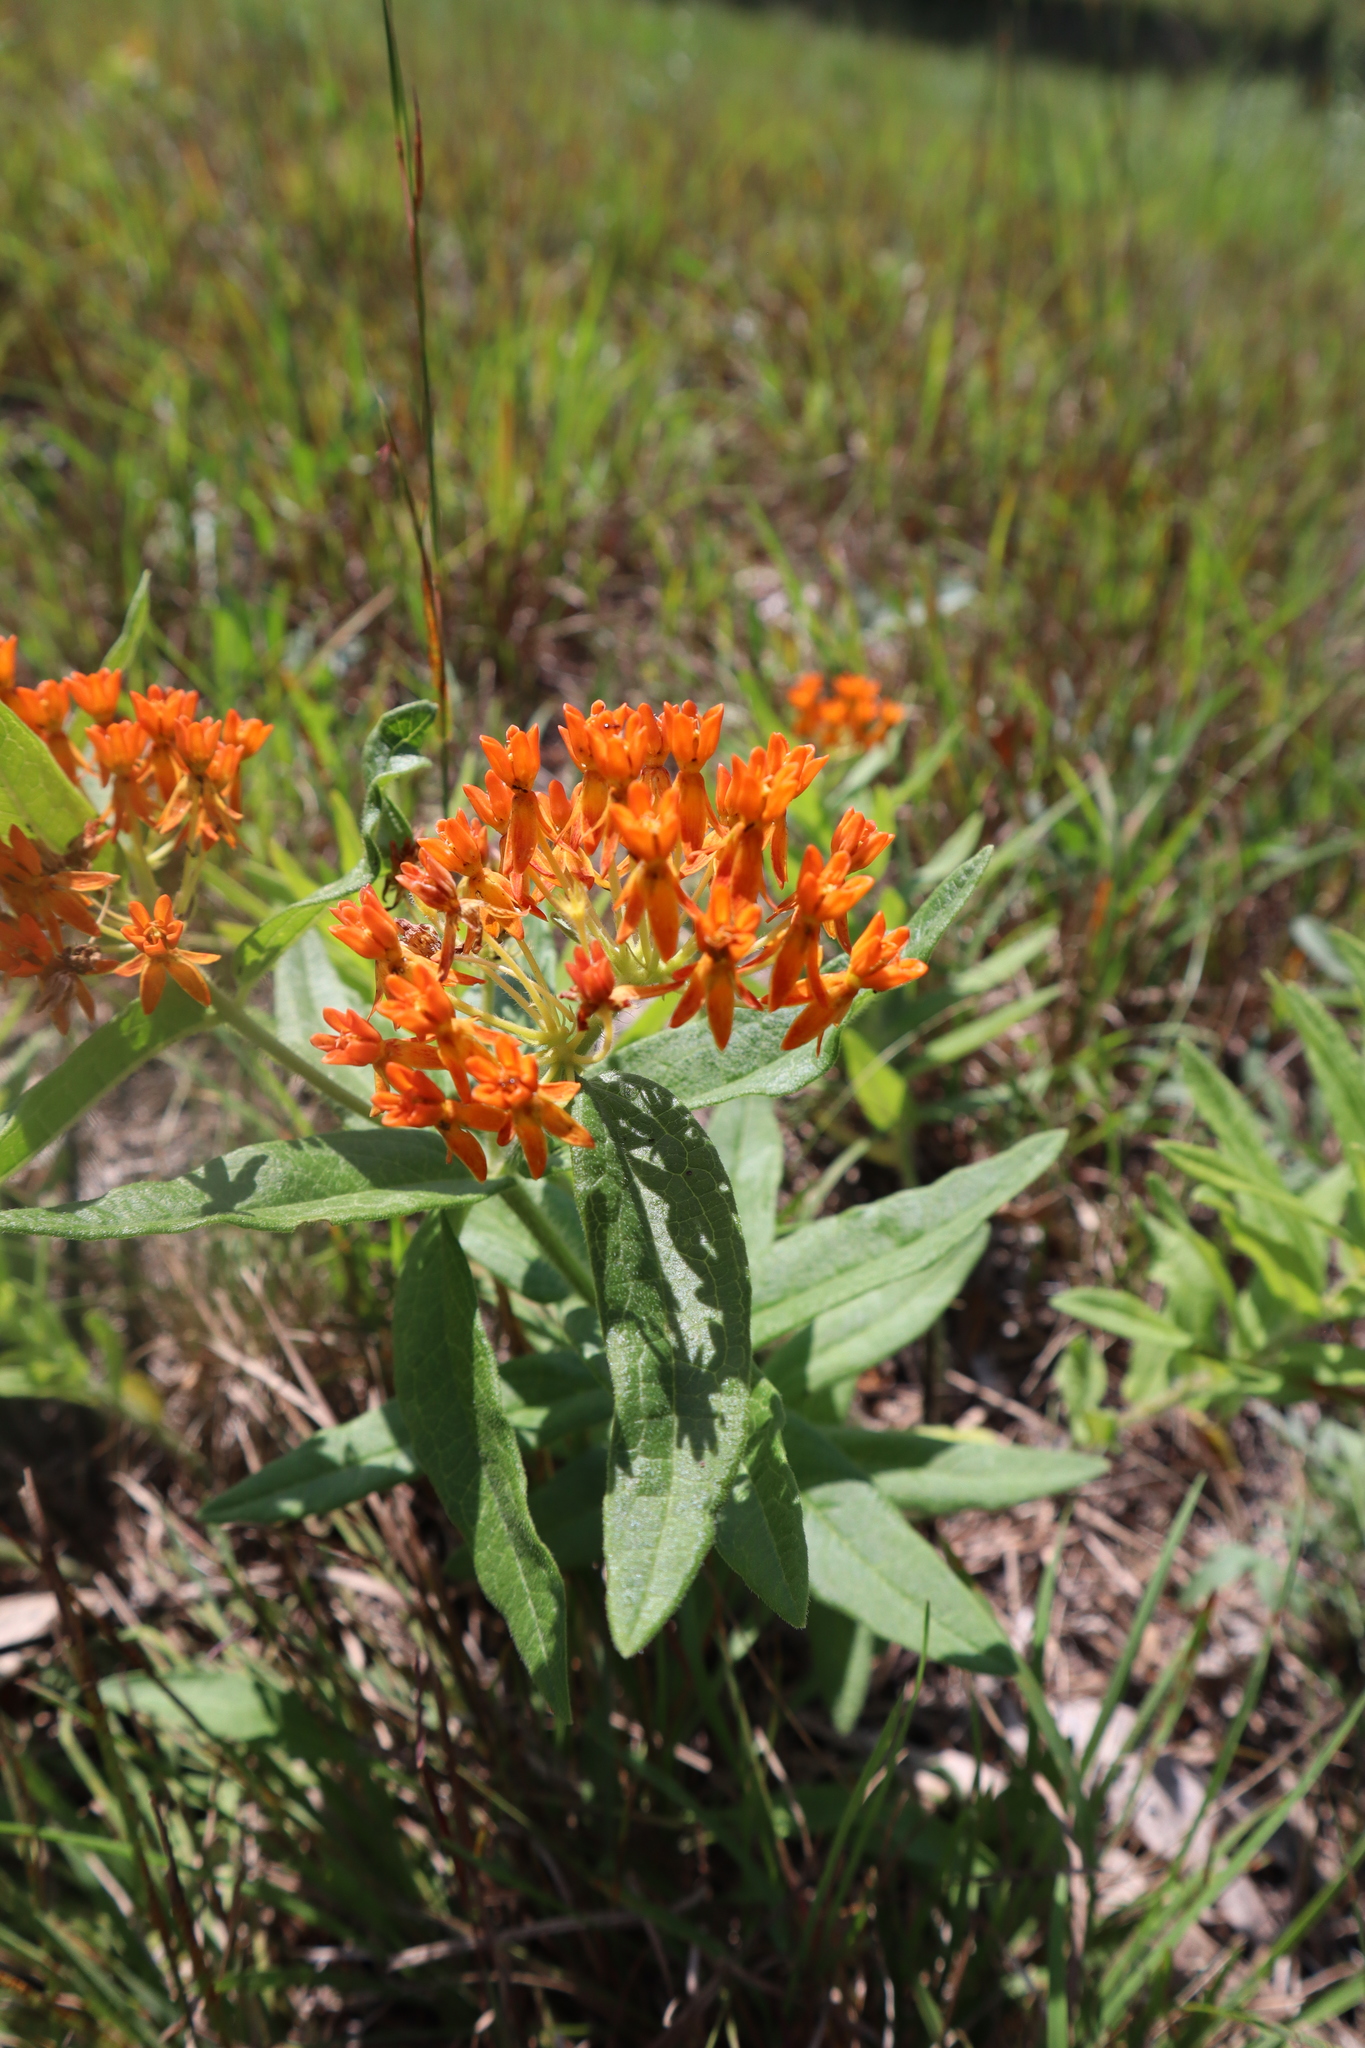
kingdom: Plantae
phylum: Tracheophyta
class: Magnoliopsida
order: Gentianales
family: Apocynaceae
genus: Asclepias
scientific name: Asclepias tuberosa
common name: Butterfly milkweed
